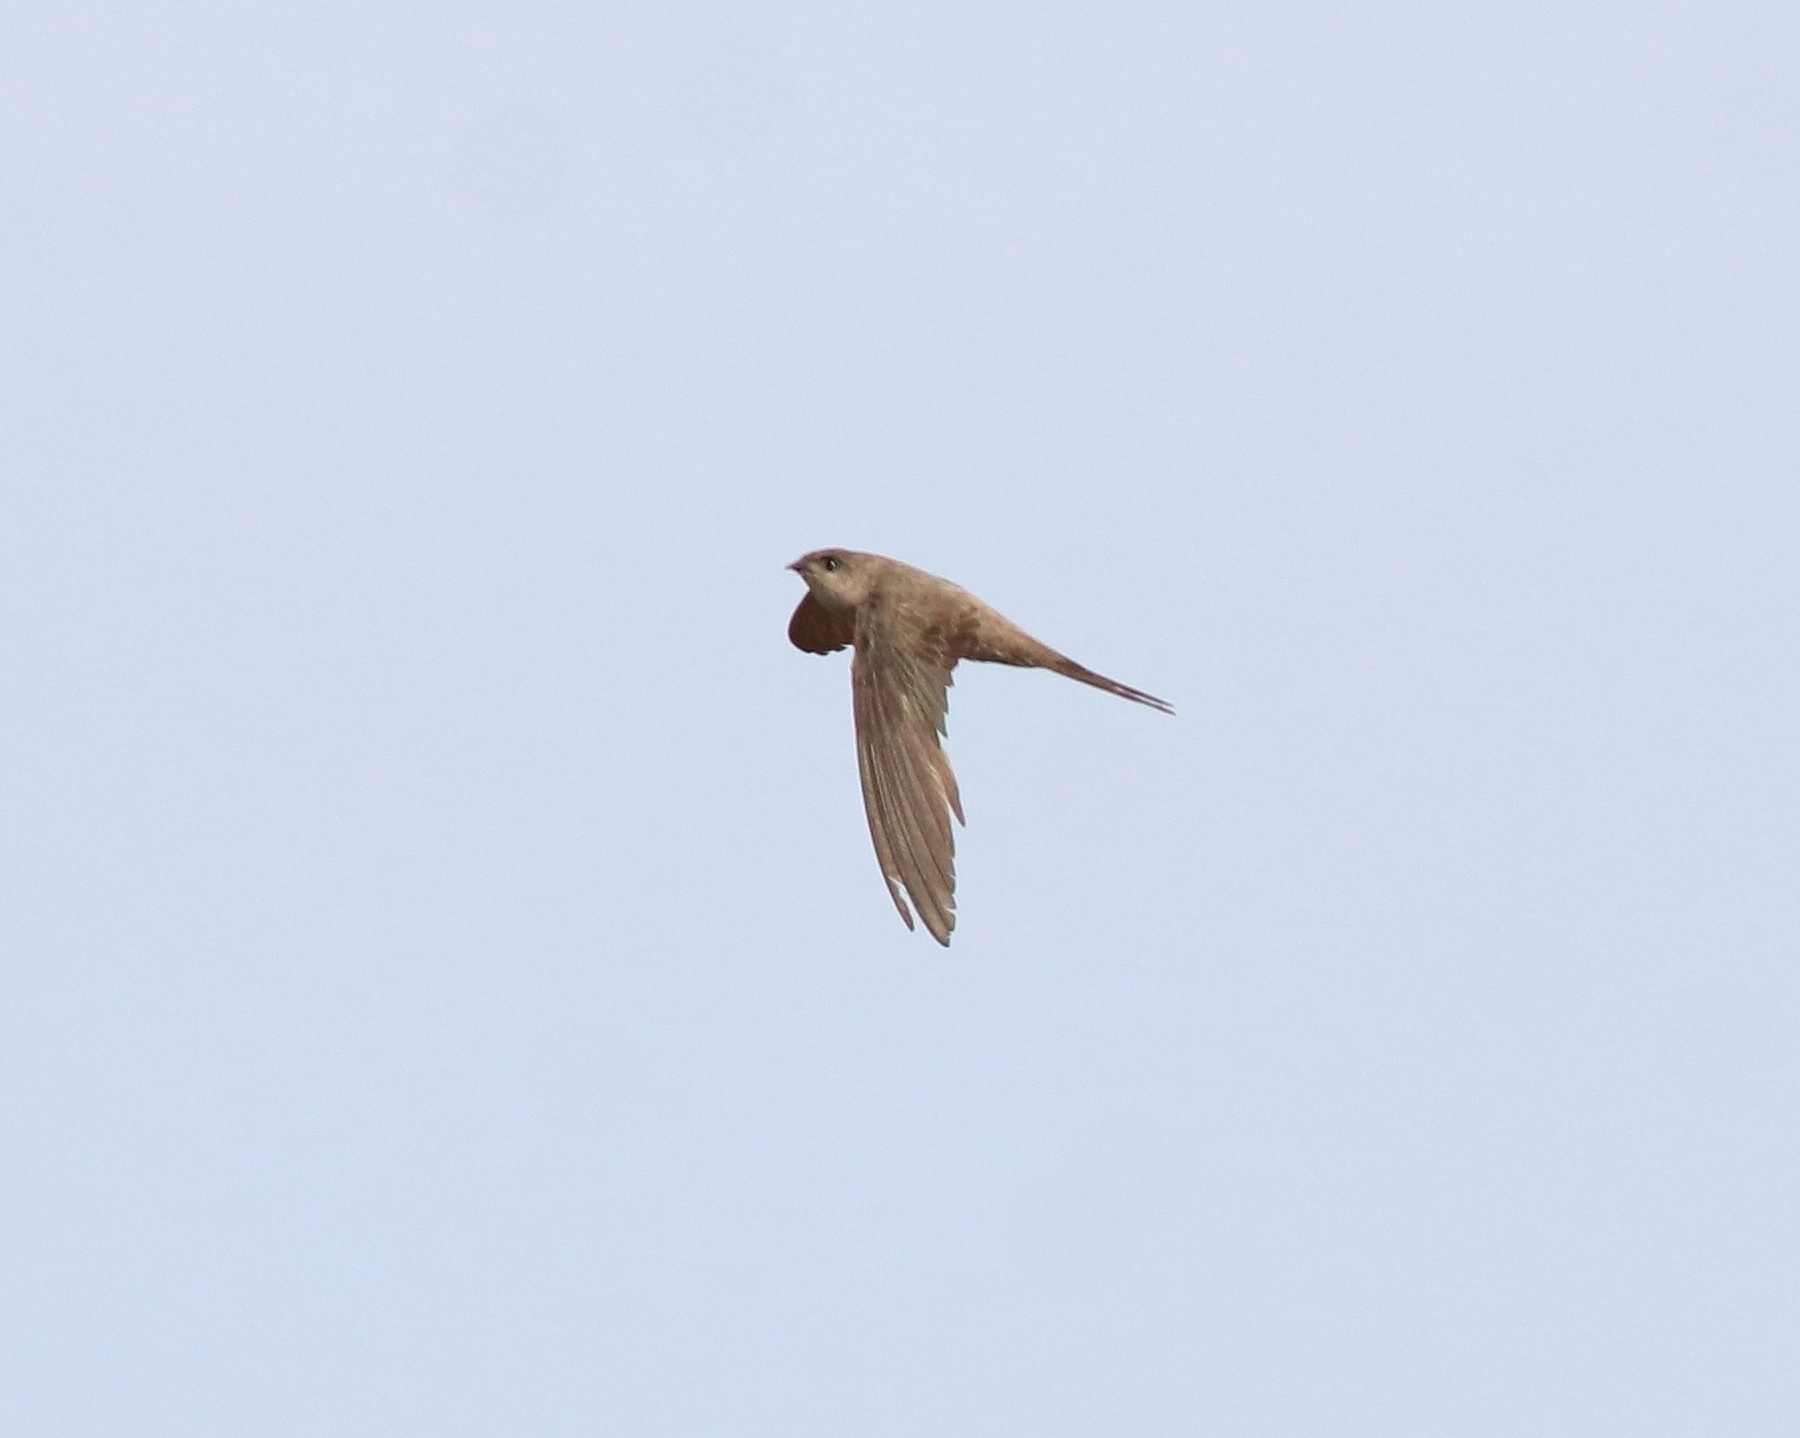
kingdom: Animalia
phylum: Chordata
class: Aves
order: Apodiformes
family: Apodidae
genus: Cypsiurus
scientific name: Cypsiurus balasiensis
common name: Asian palm swift
